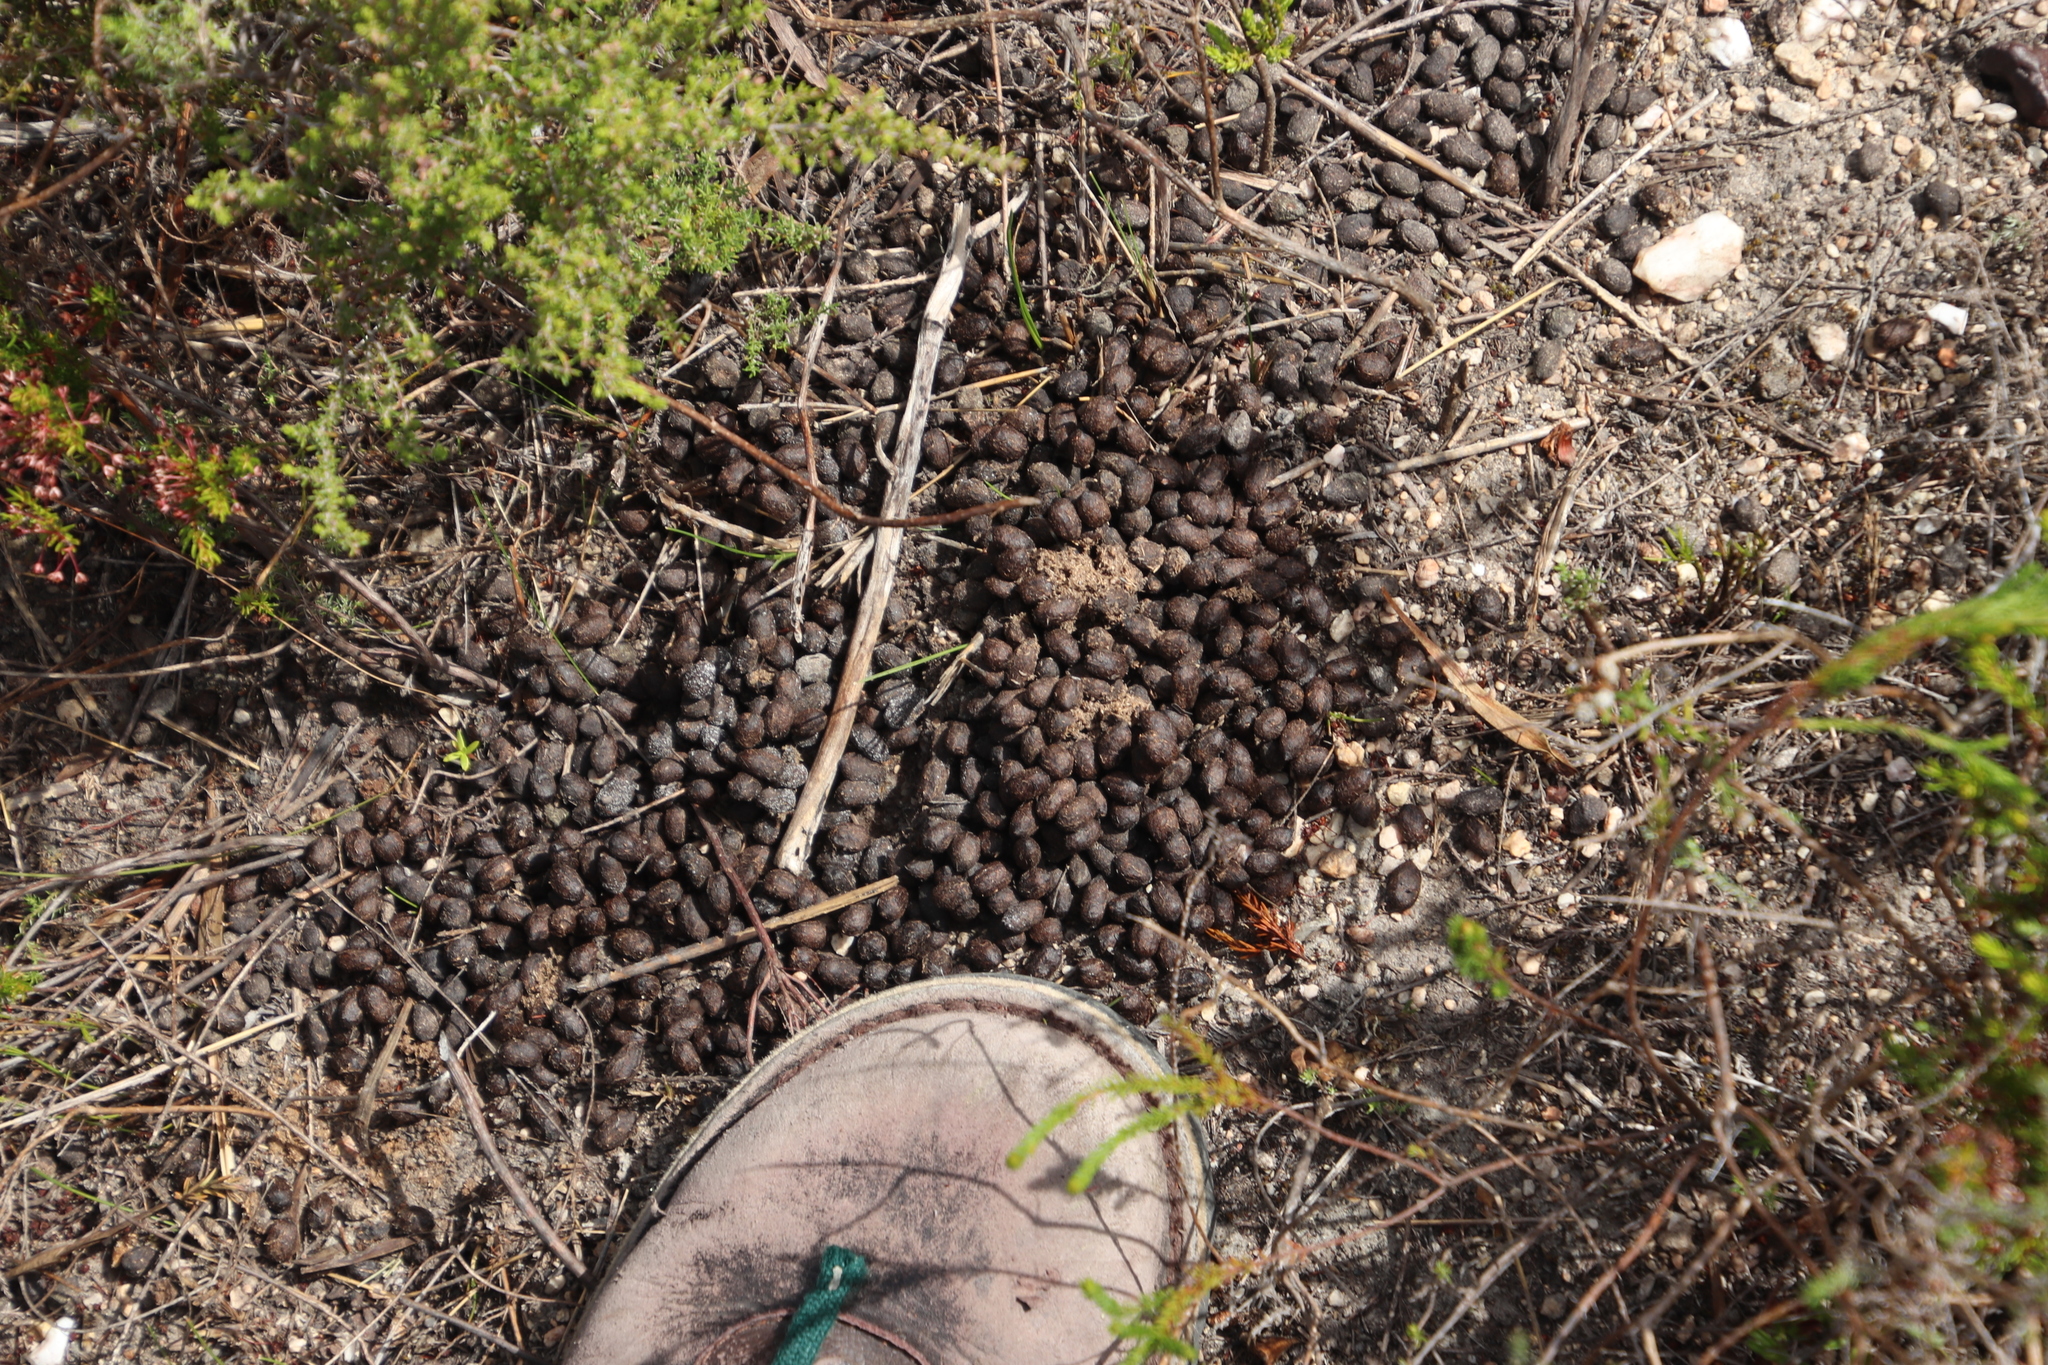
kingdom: Animalia
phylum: Chordata
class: Mammalia
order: Artiodactyla
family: Bovidae
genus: Raphicerus
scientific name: Raphicerus melanotis
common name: Cape grysbok
